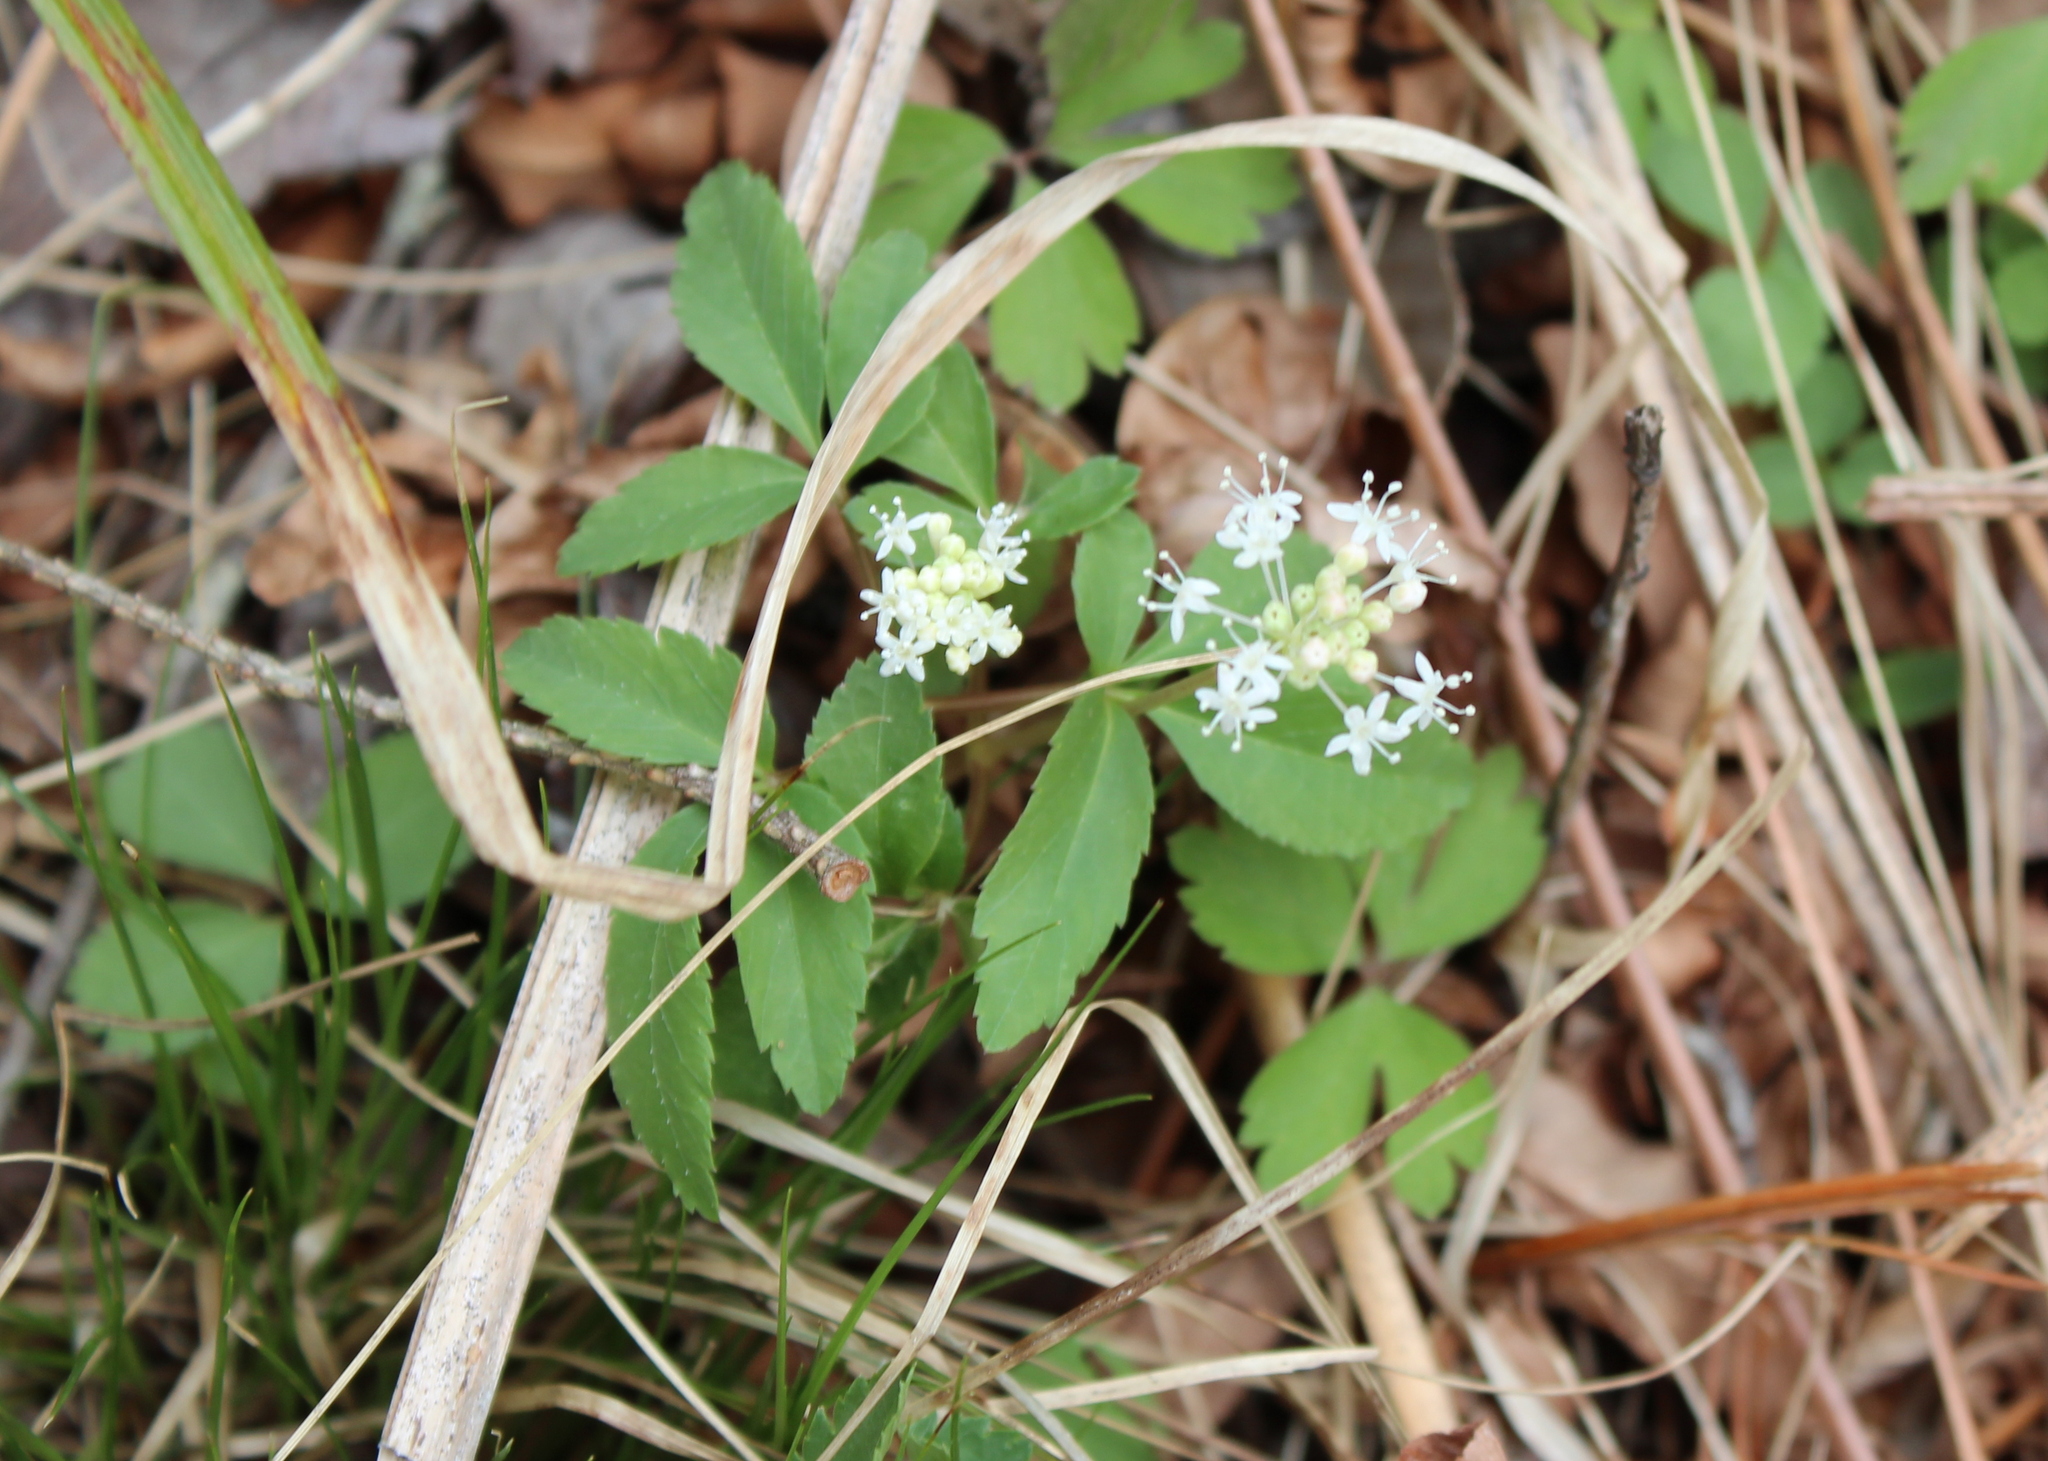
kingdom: Plantae
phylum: Tracheophyta
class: Magnoliopsida
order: Apiales
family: Araliaceae
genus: Panax
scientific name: Panax trifolius
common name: Dwarf ginseng
